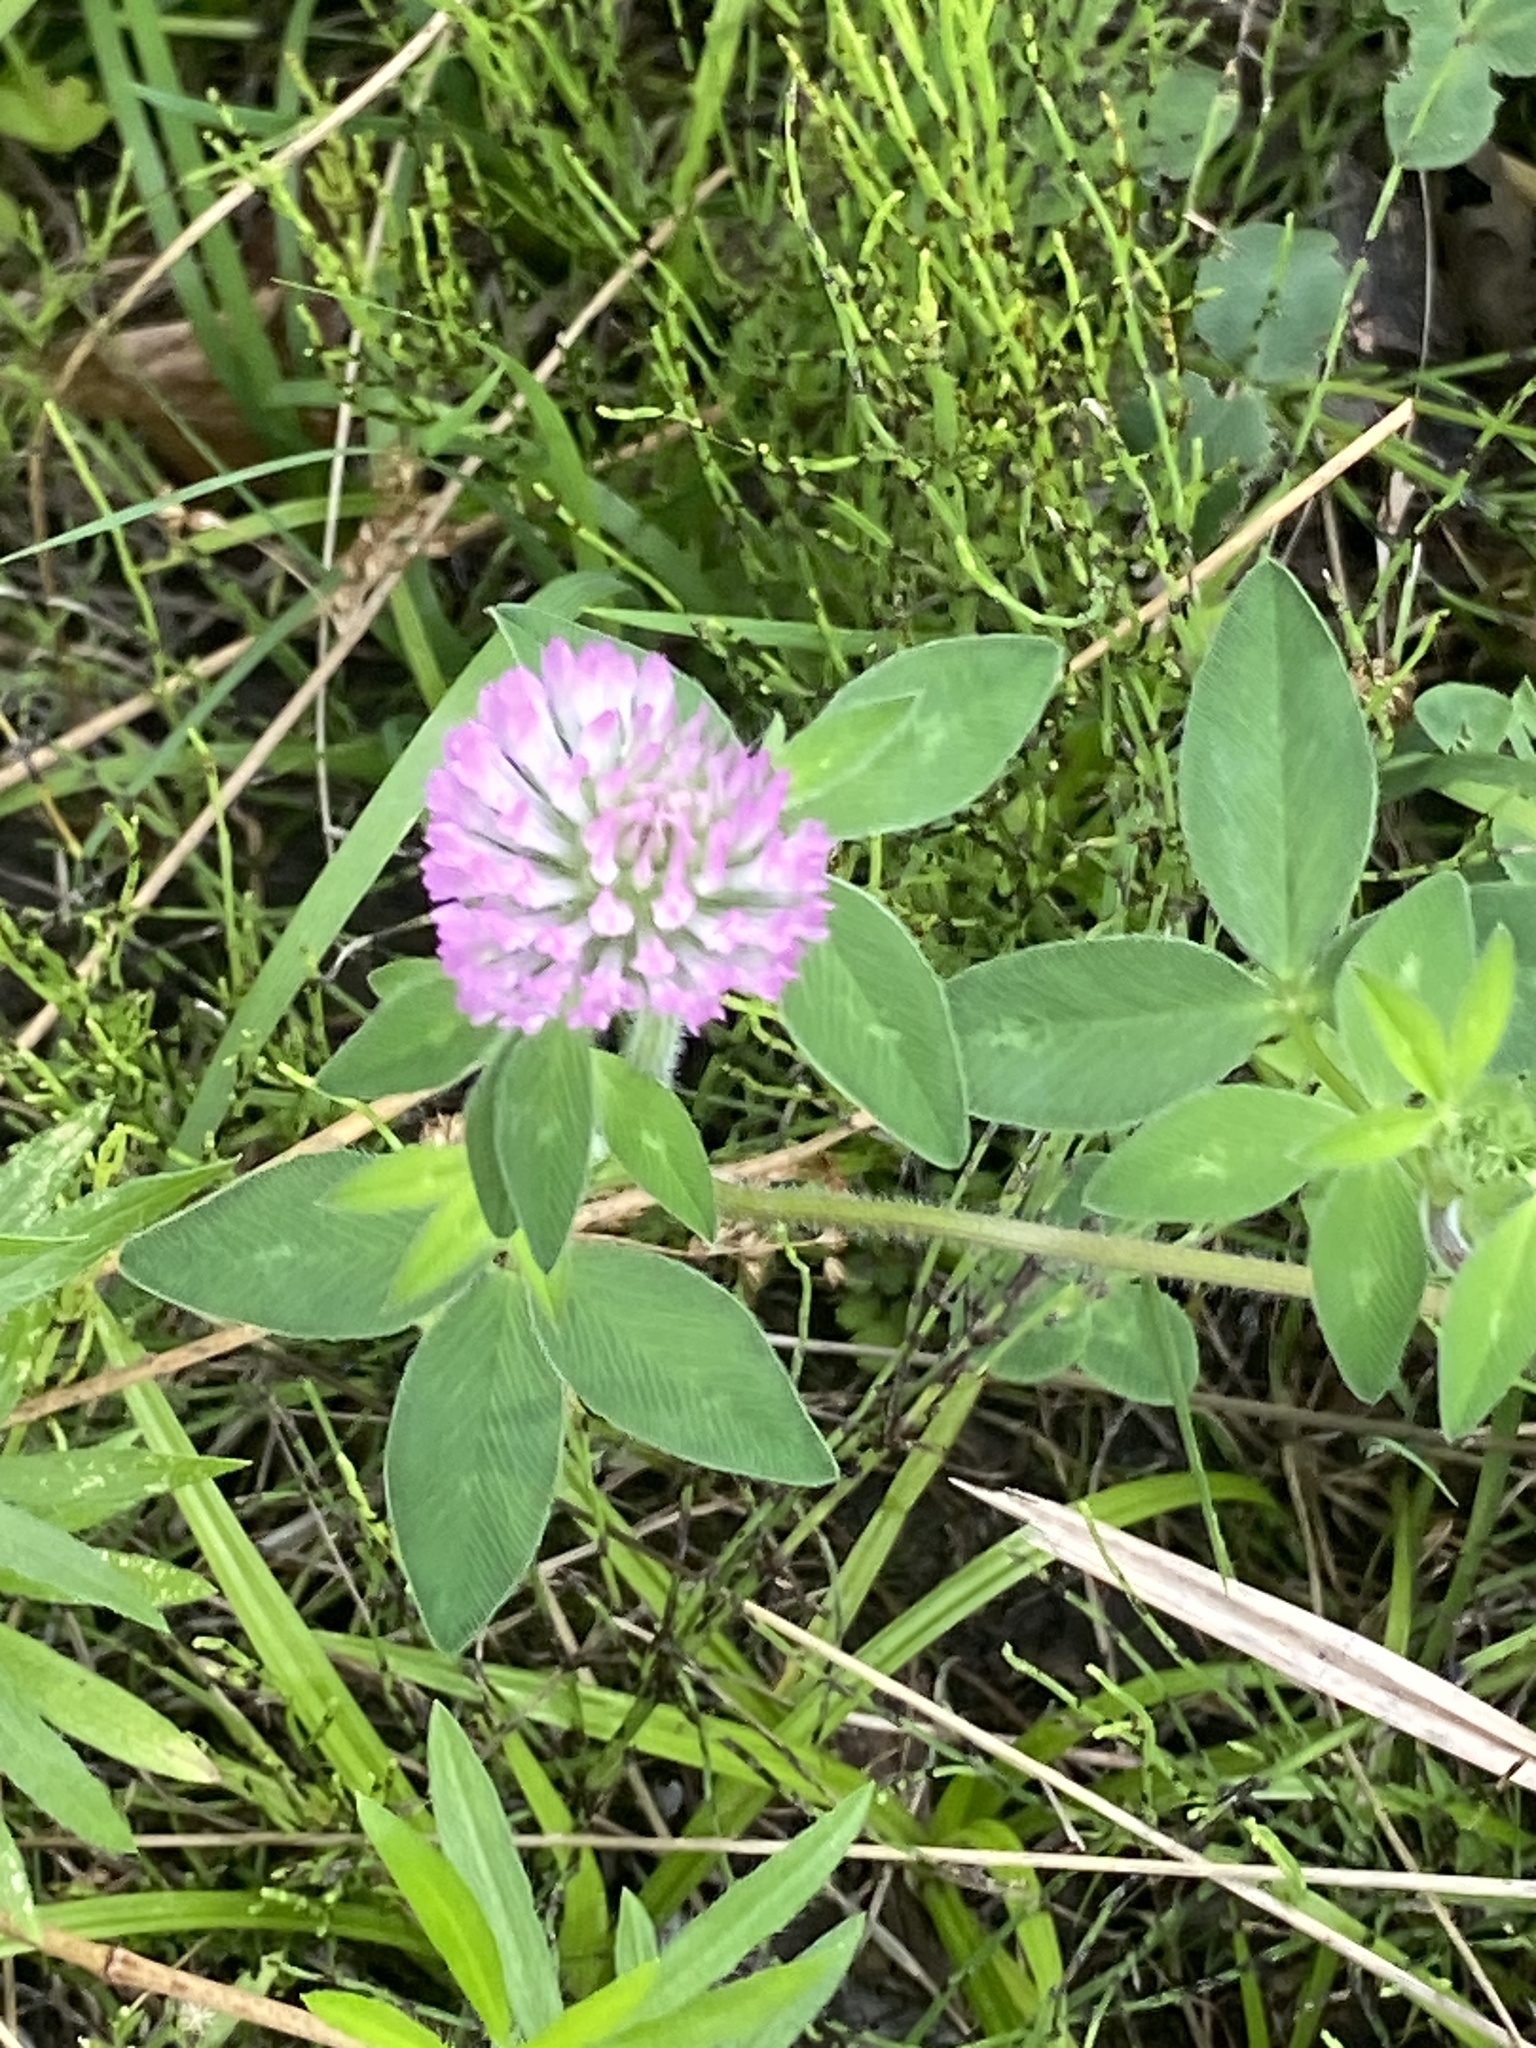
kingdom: Plantae
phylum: Tracheophyta
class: Magnoliopsida
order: Fabales
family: Fabaceae
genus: Trifolium
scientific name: Trifolium pratense
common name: Red clover
